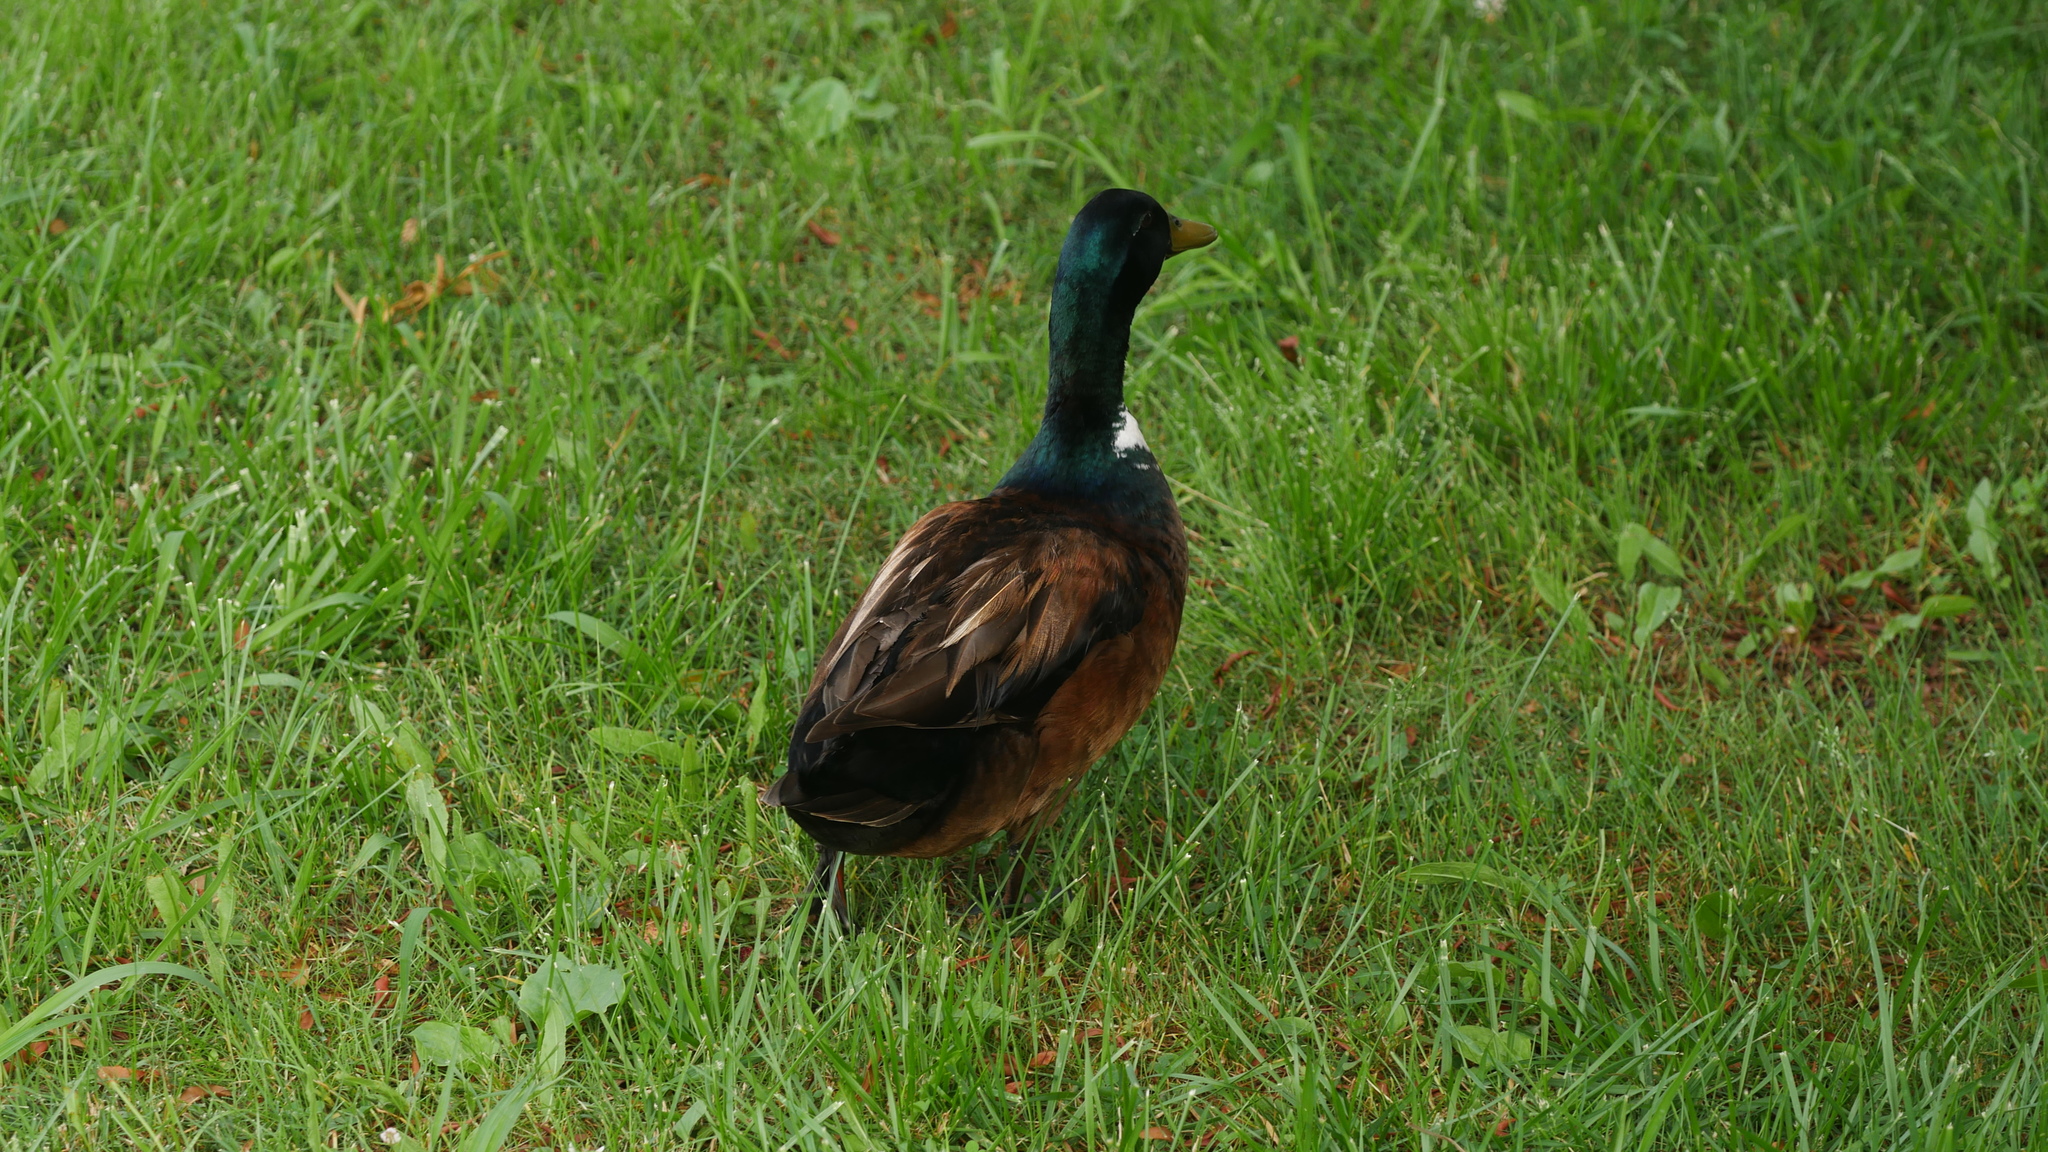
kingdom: Animalia
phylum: Chordata
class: Aves
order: Anseriformes
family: Anatidae
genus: Anas
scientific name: Anas platyrhynchos
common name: Mallard
